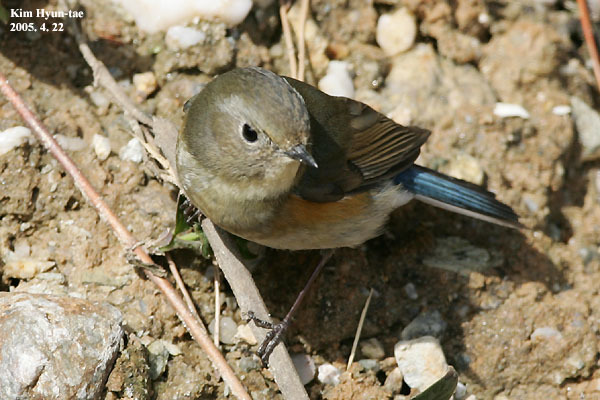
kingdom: Animalia
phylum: Chordata
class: Aves
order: Passeriformes
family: Muscicapidae
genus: Tarsiger
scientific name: Tarsiger cyanurus
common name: Red-flanked bluetail
